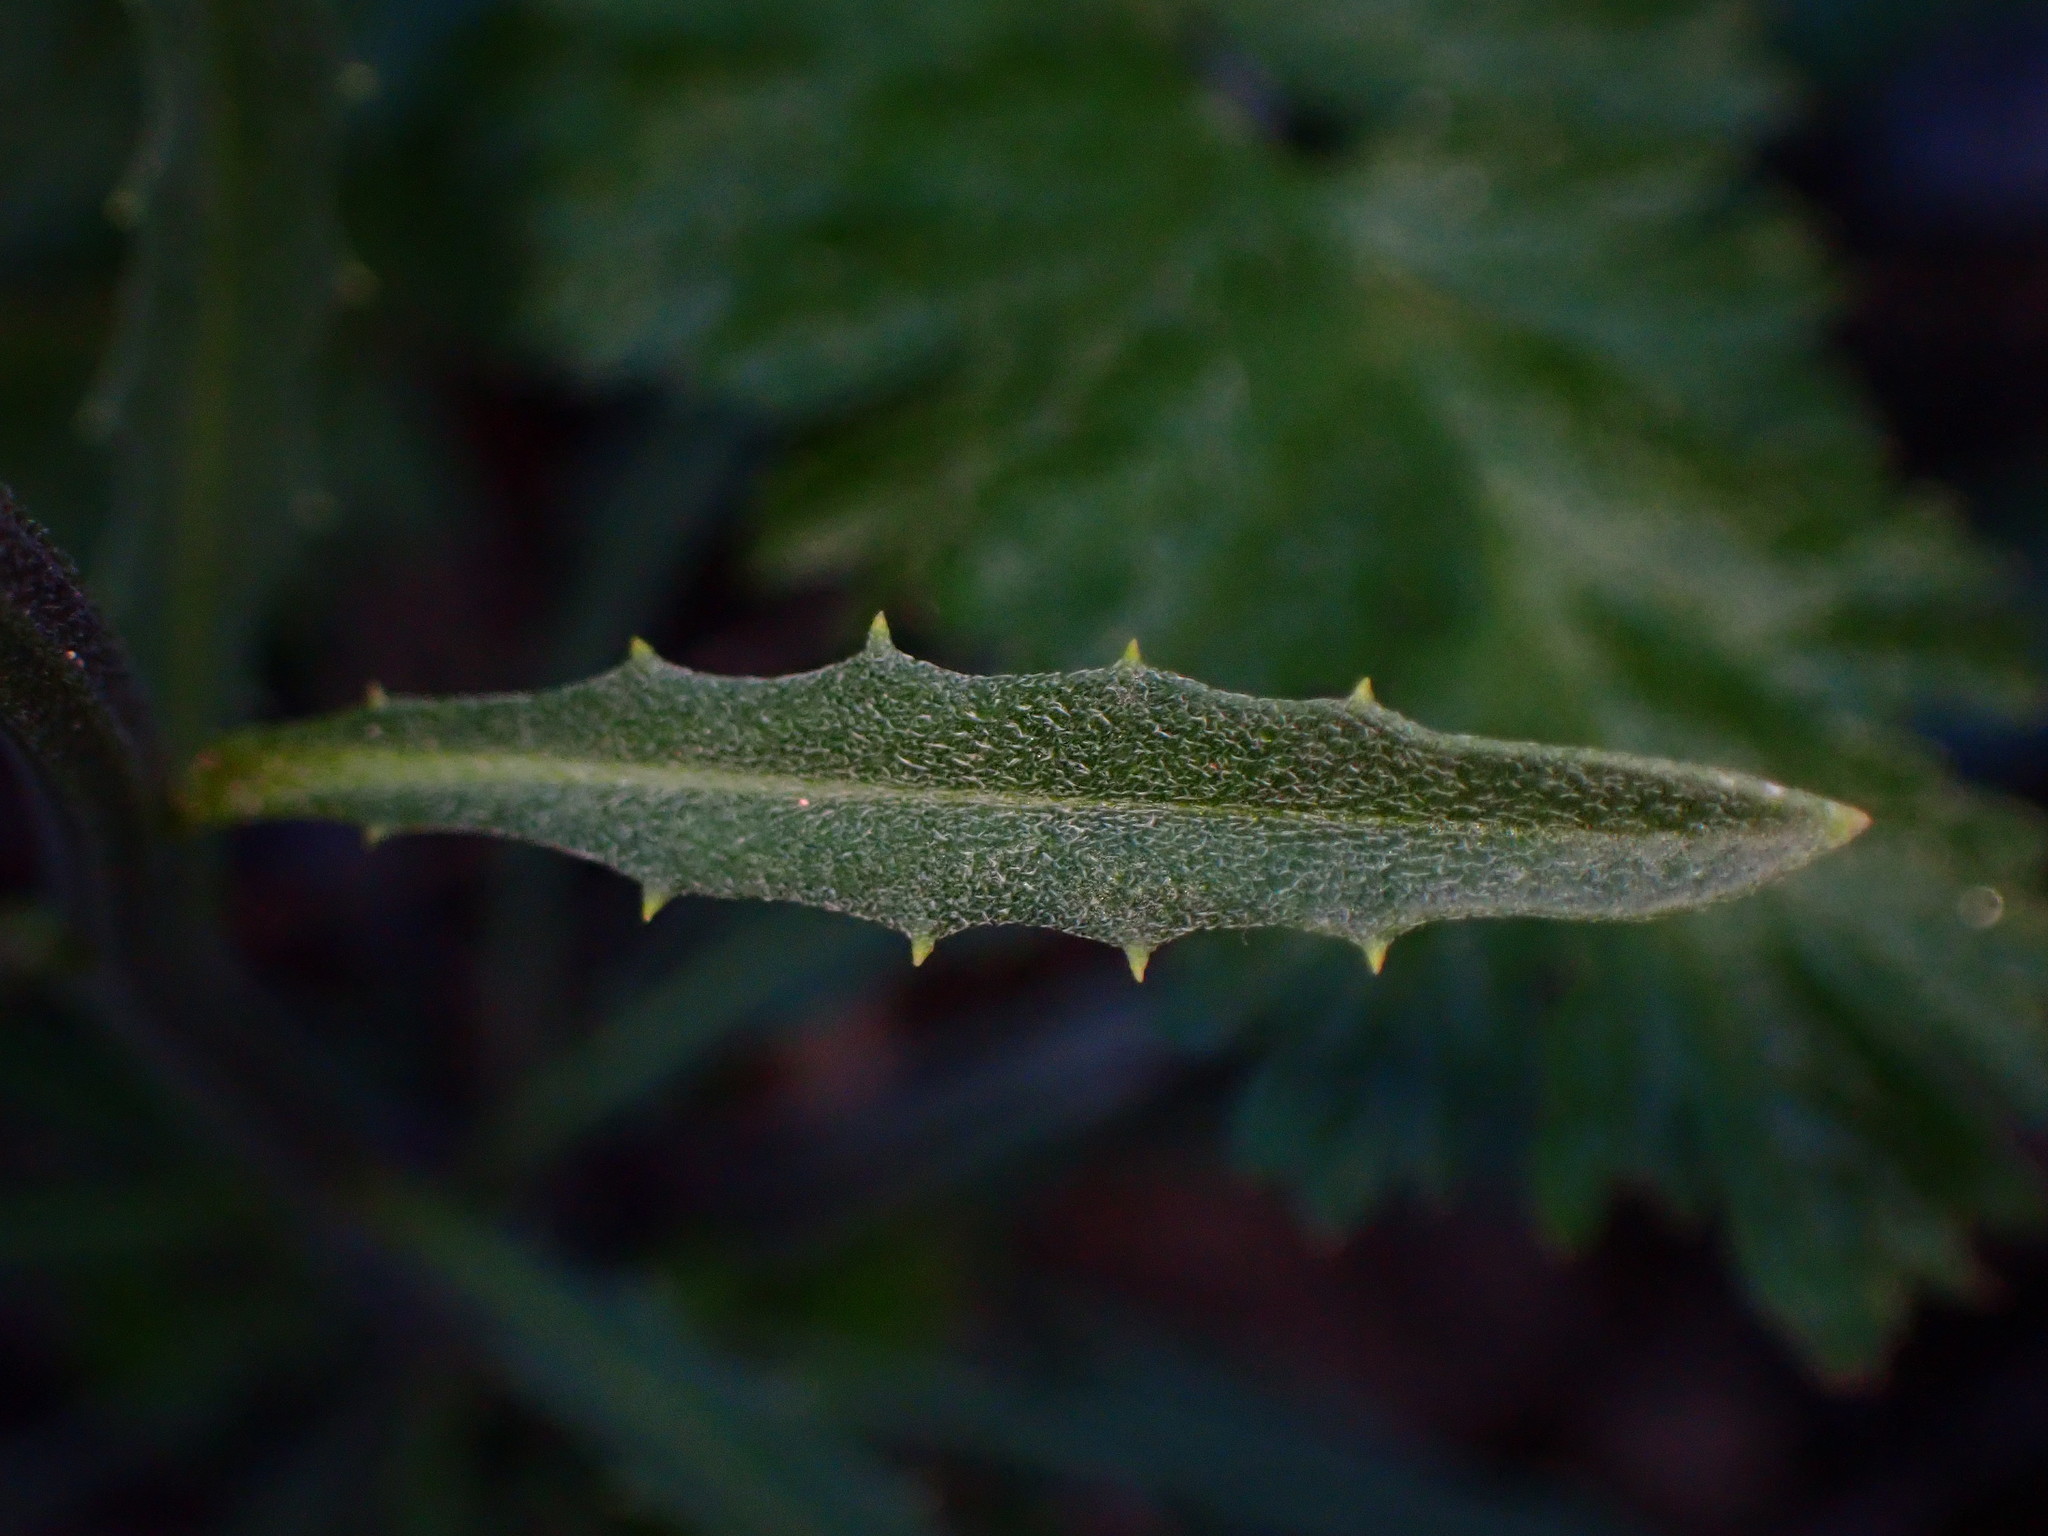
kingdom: Plantae
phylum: Tracheophyta
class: Magnoliopsida
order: Brassicales
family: Brassicaceae
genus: Erysimum
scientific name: Erysimum franciscanum
